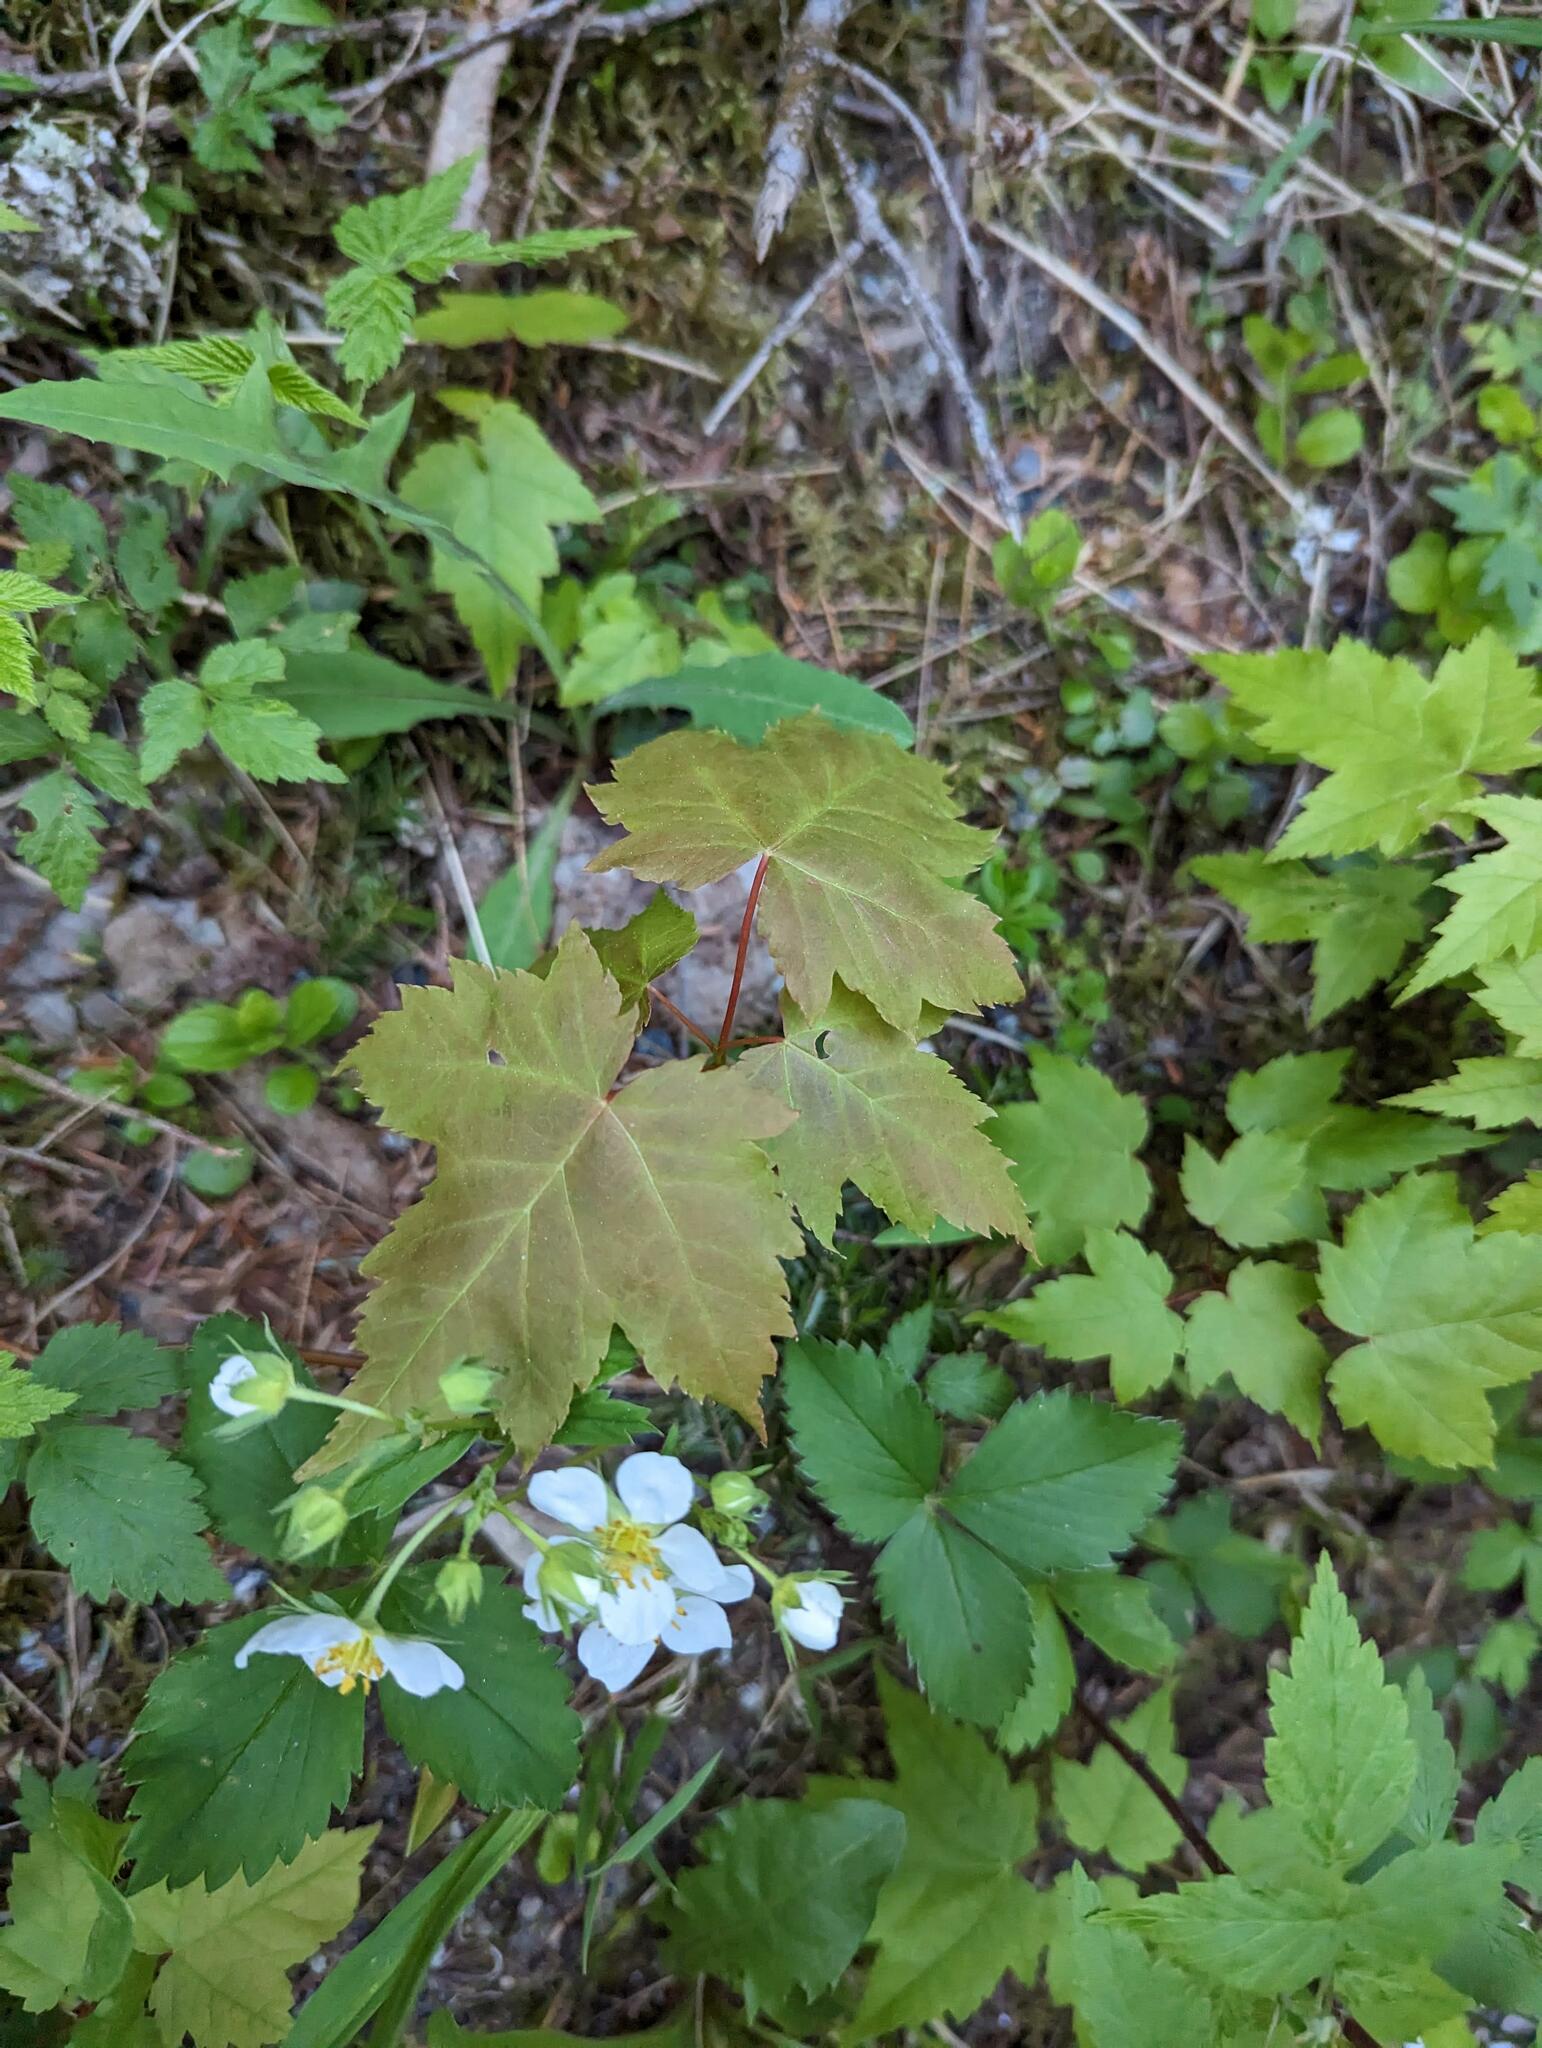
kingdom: Plantae
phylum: Tracheophyta
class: Magnoliopsida
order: Sapindales
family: Sapindaceae
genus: Acer
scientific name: Acer rubrum
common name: Red maple
